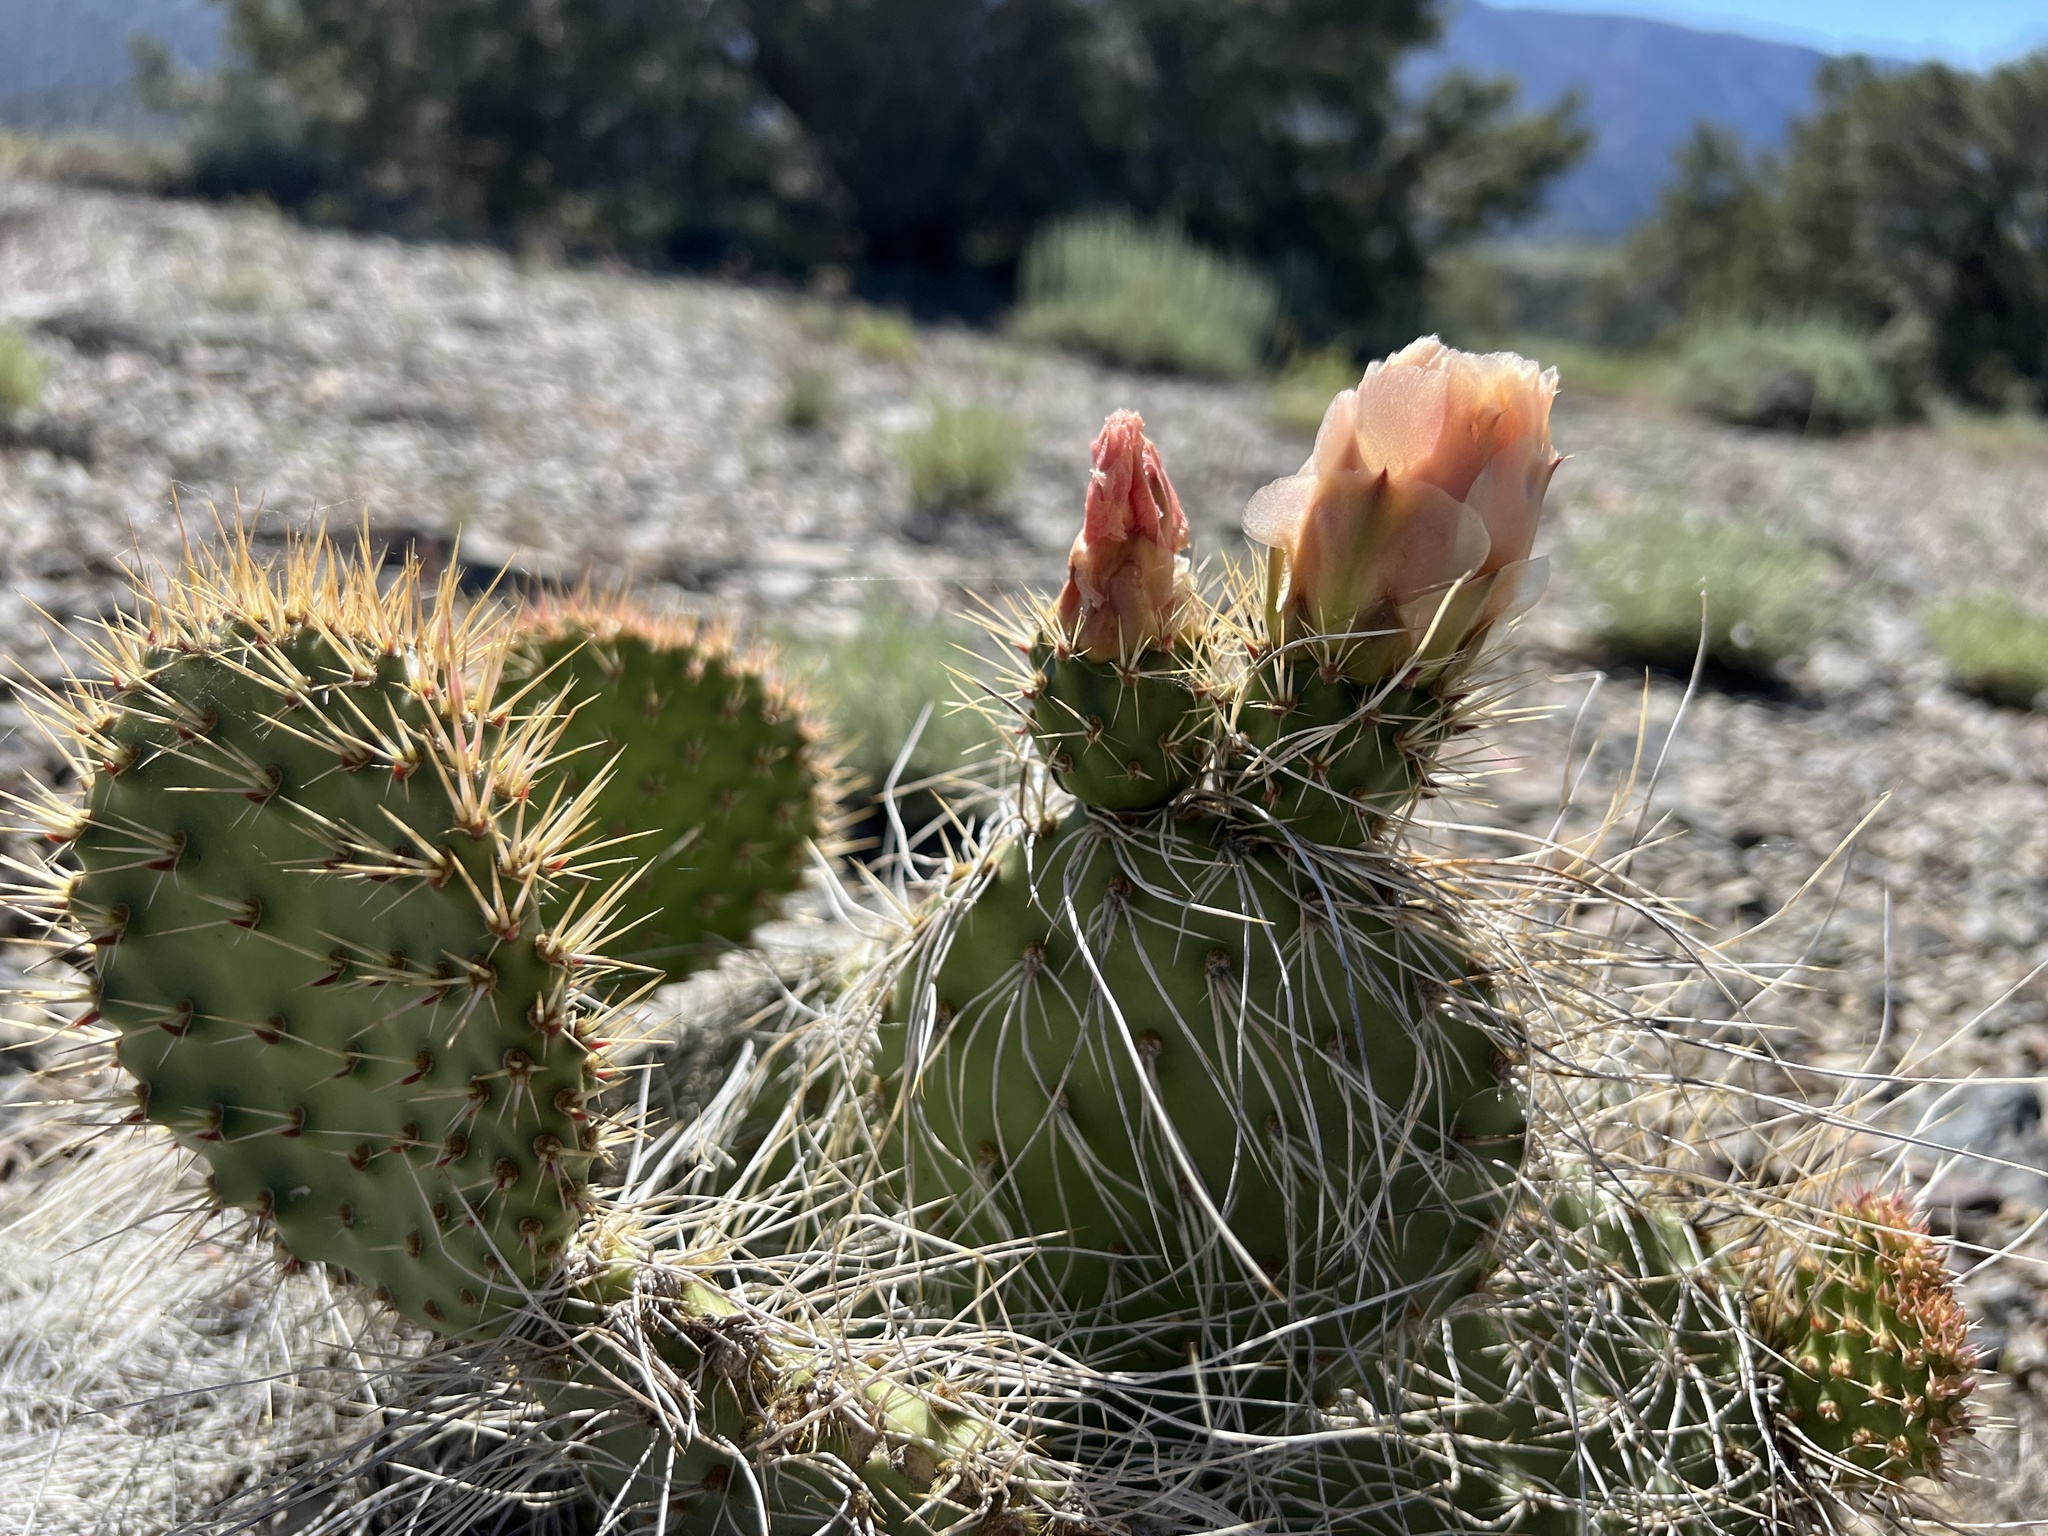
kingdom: Plantae
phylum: Tracheophyta
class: Magnoliopsida
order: Caryophyllales
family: Cactaceae
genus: Opuntia
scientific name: Opuntia polyacantha
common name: Plains prickly-pear
